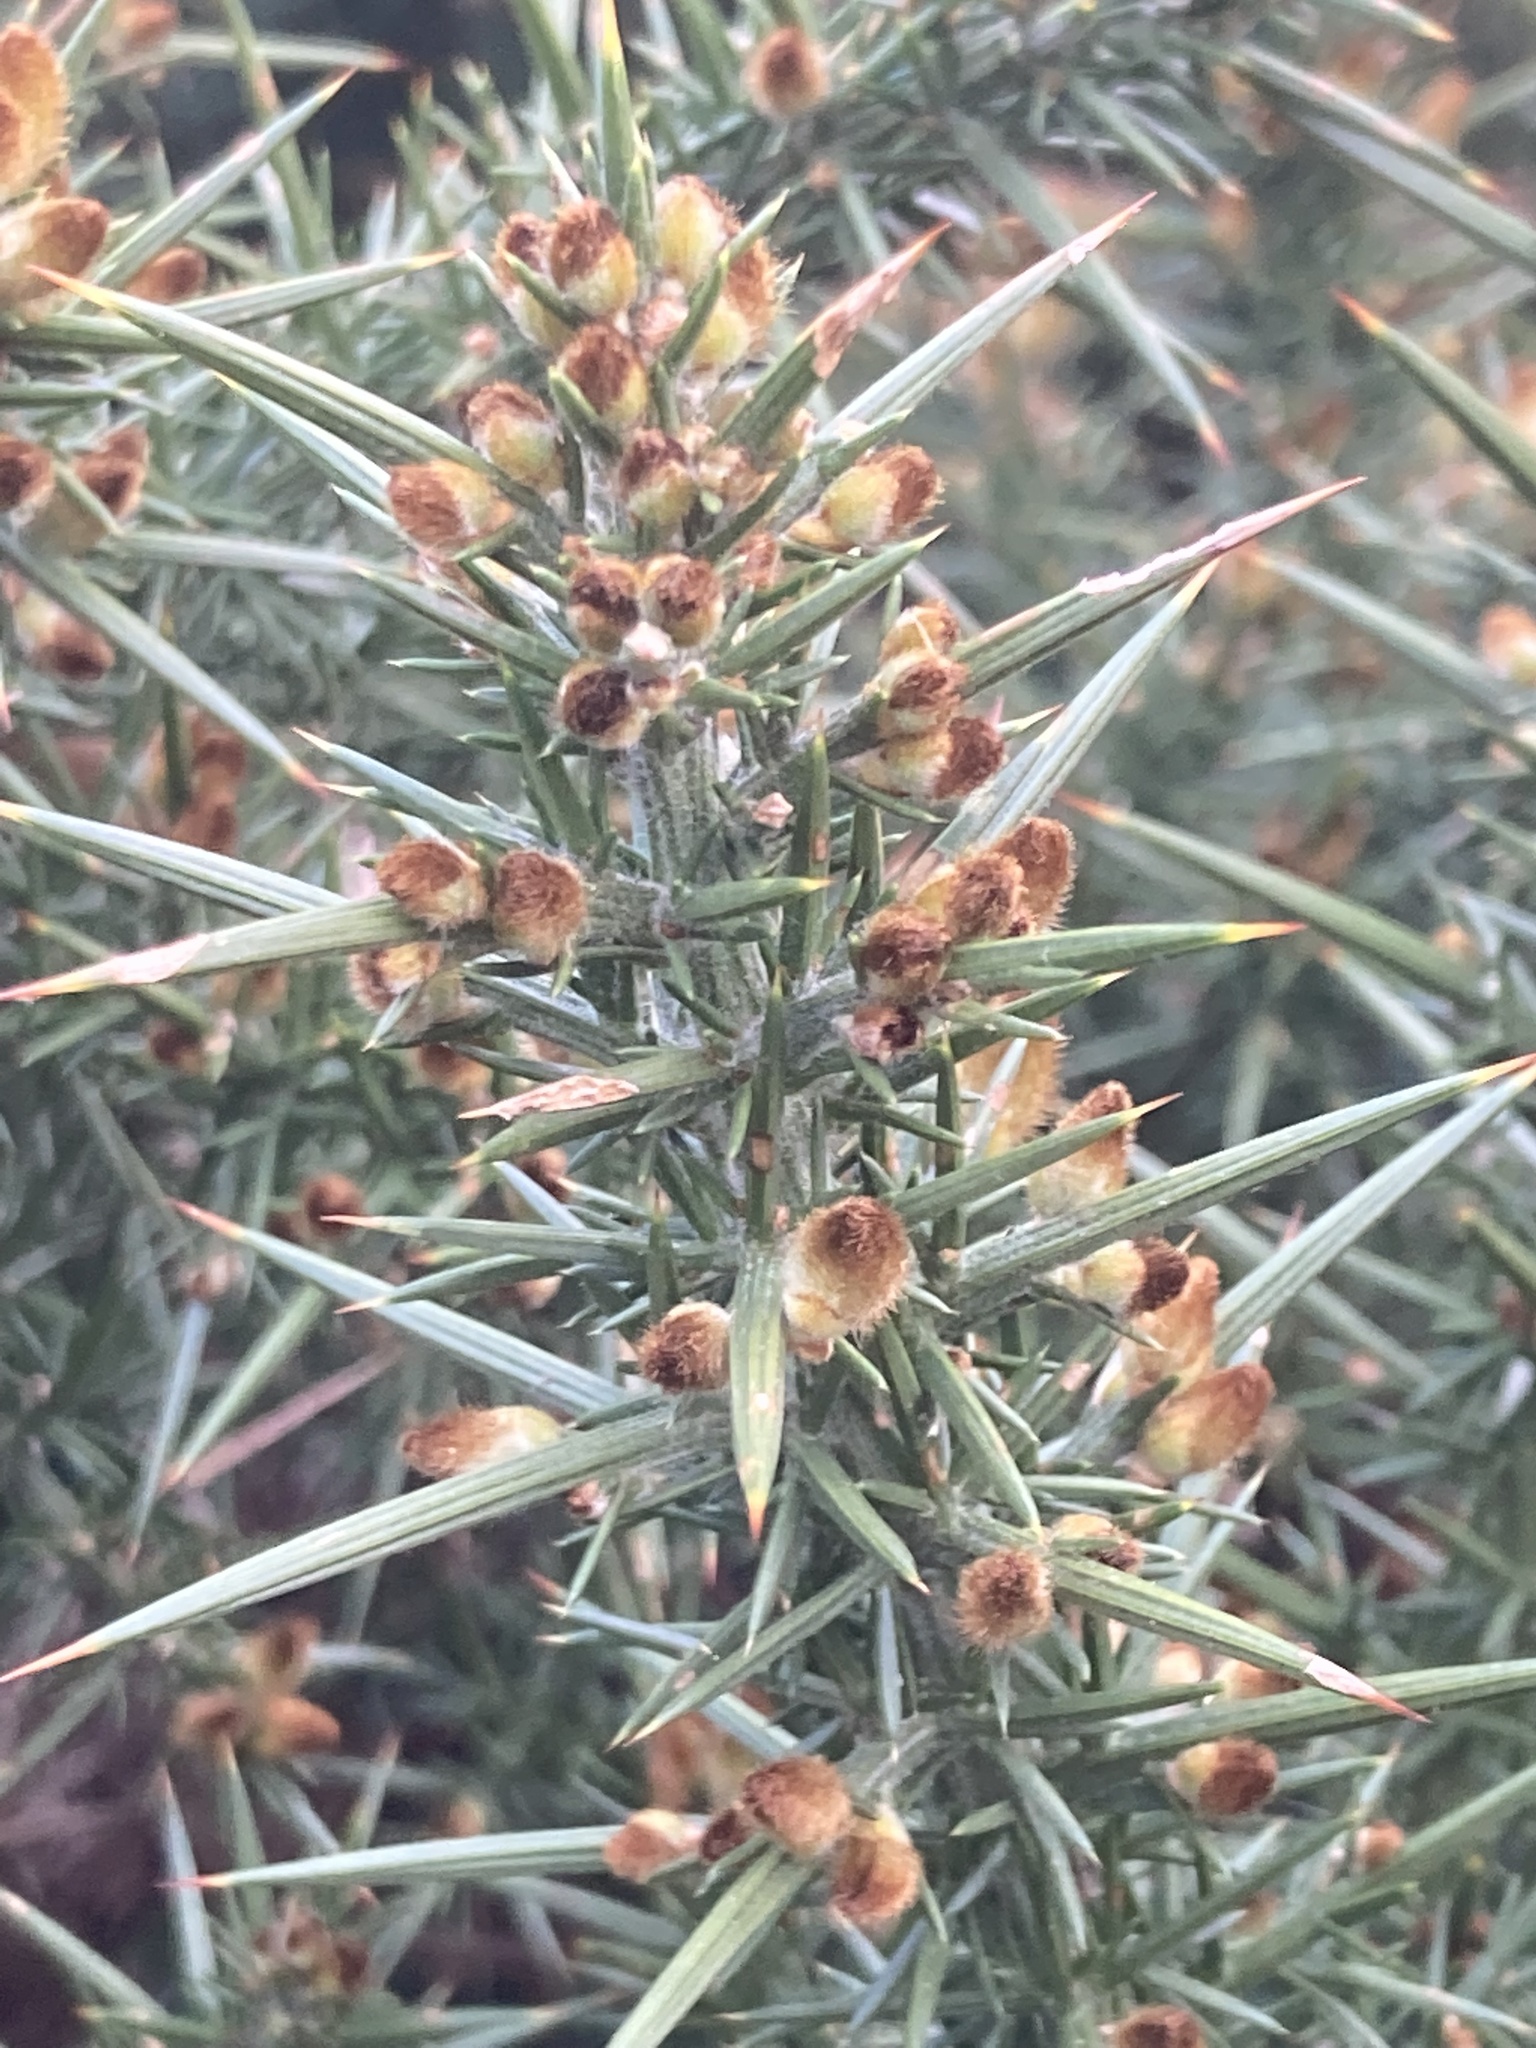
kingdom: Plantae
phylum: Tracheophyta
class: Magnoliopsida
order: Fabales
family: Fabaceae
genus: Ulex
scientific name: Ulex europaeus
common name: Common gorse
